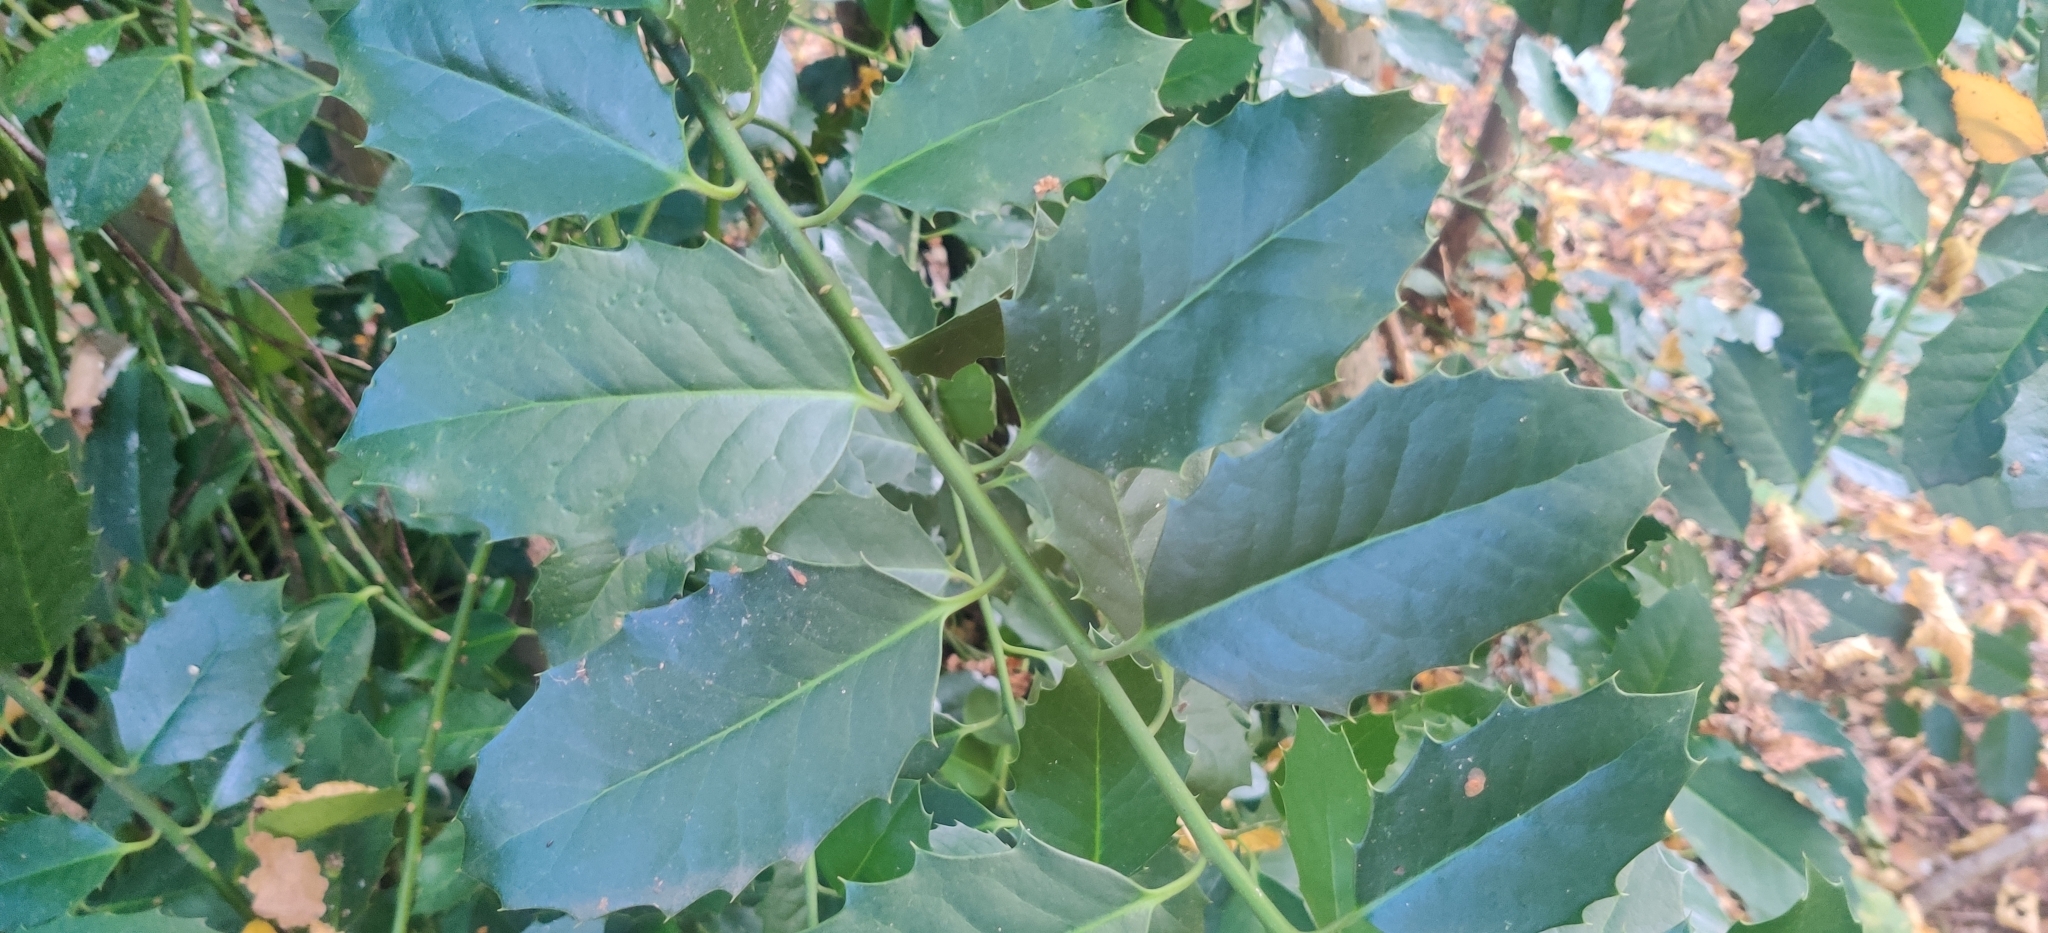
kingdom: Plantae
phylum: Tracheophyta
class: Magnoliopsida
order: Aquifoliales
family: Aquifoliaceae
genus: Ilex
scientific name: Ilex altaclerensis
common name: Highclere holly
